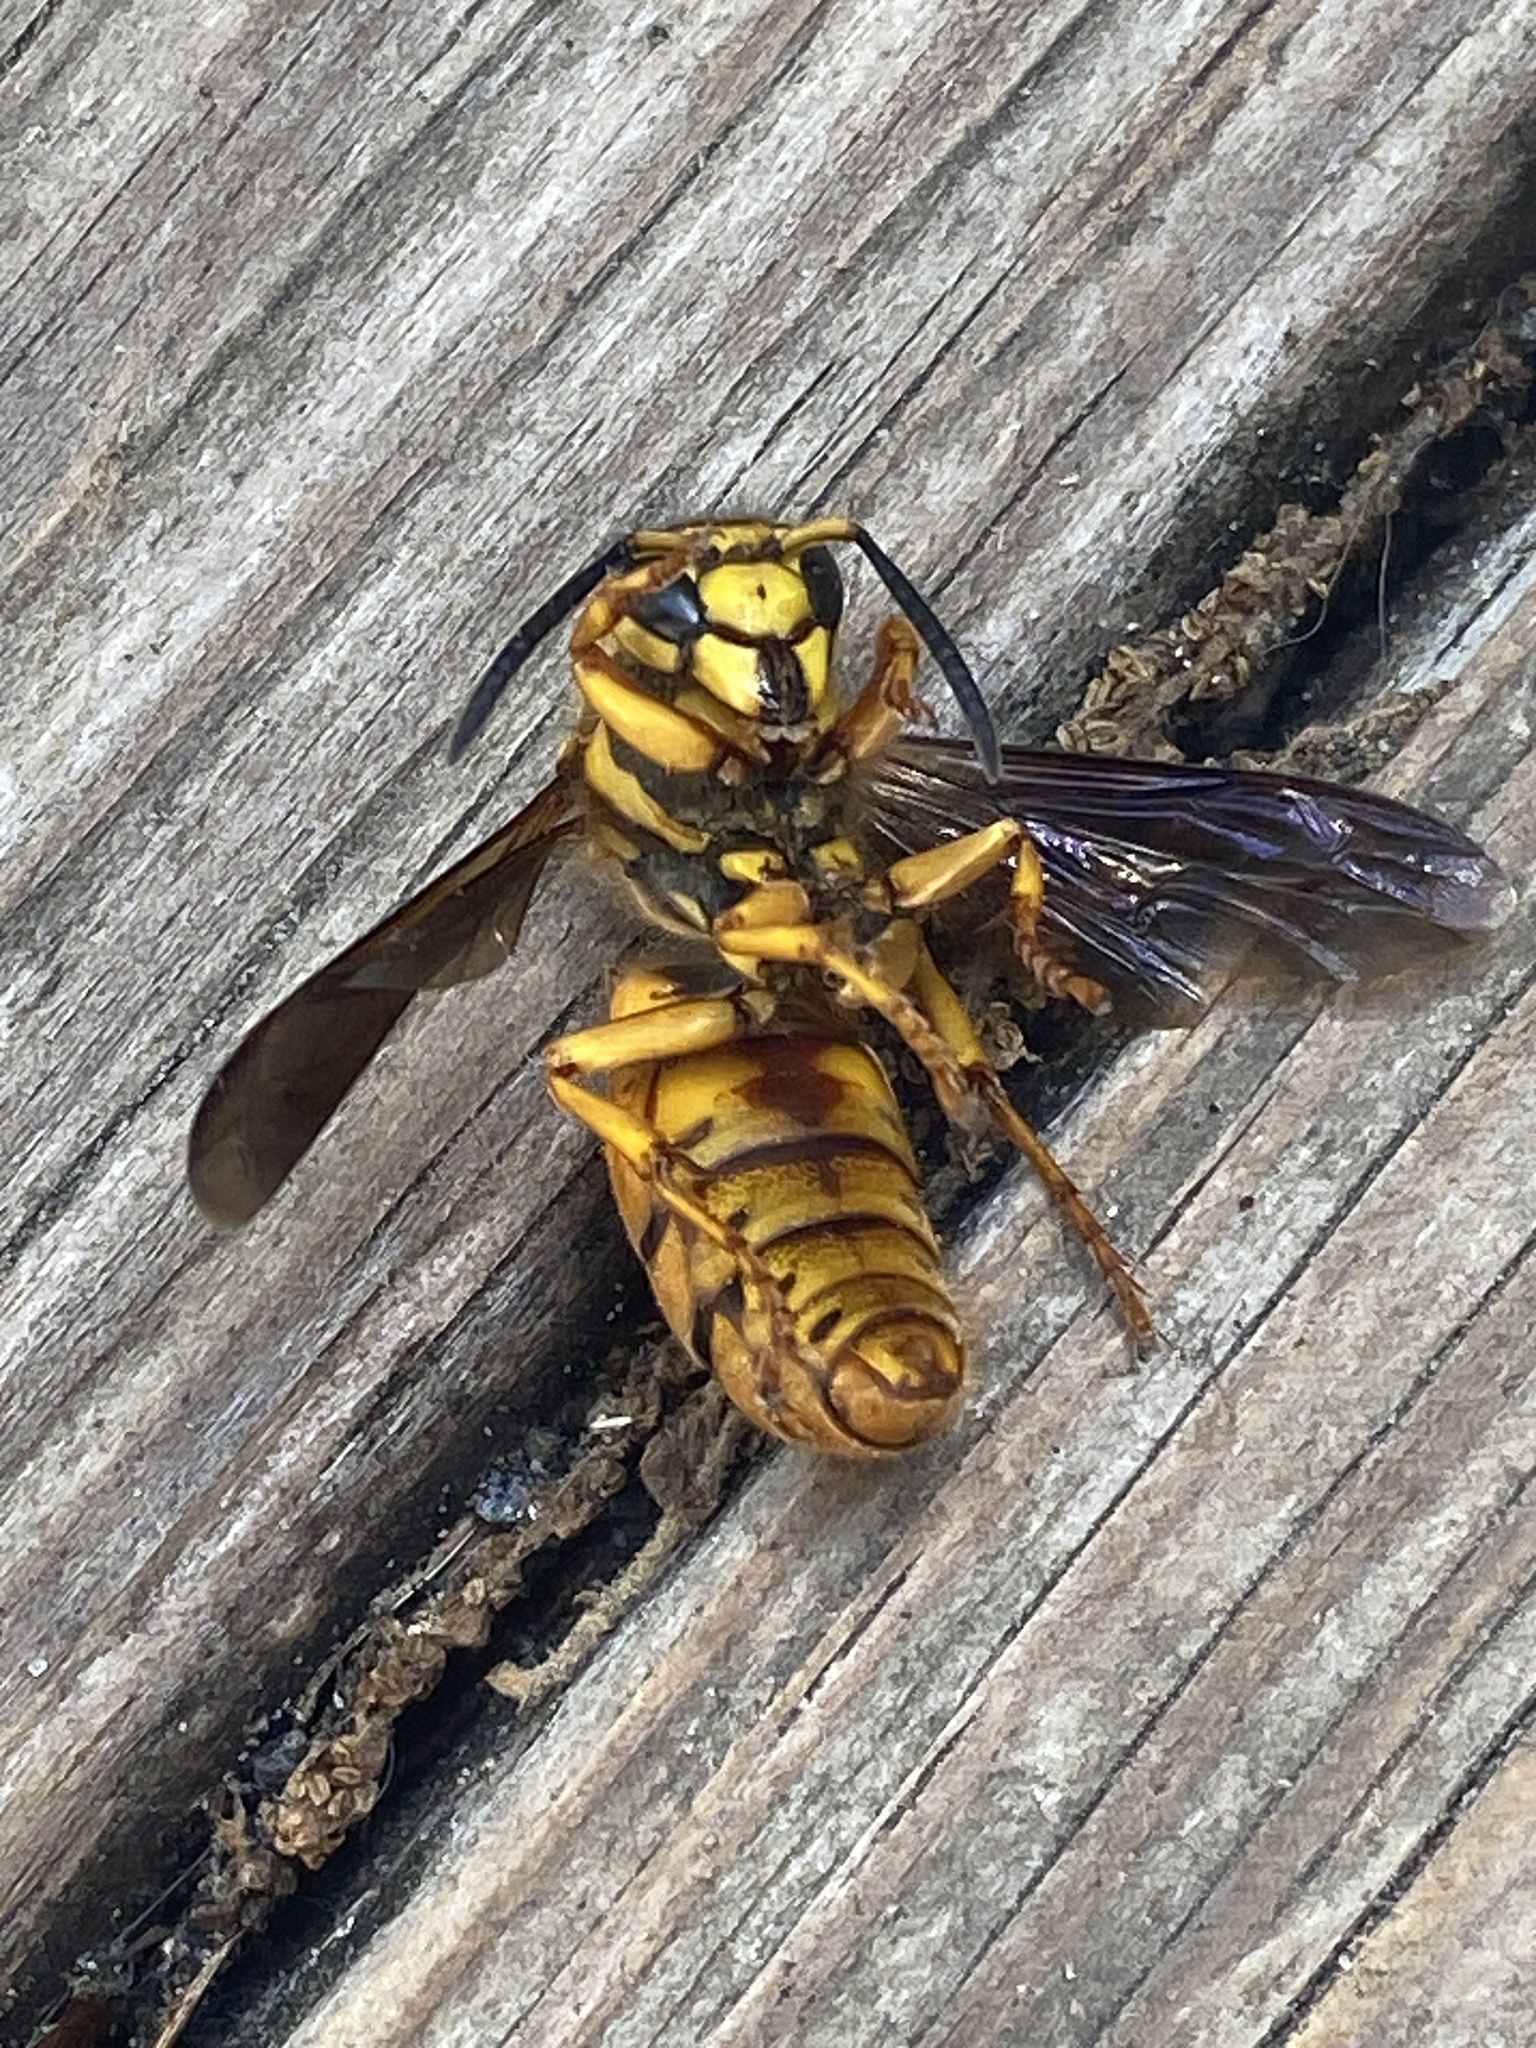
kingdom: Animalia
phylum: Arthropoda
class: Insecta
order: Hymenoptera
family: Vespidae
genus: Vespula
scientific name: Vespula squamosa
